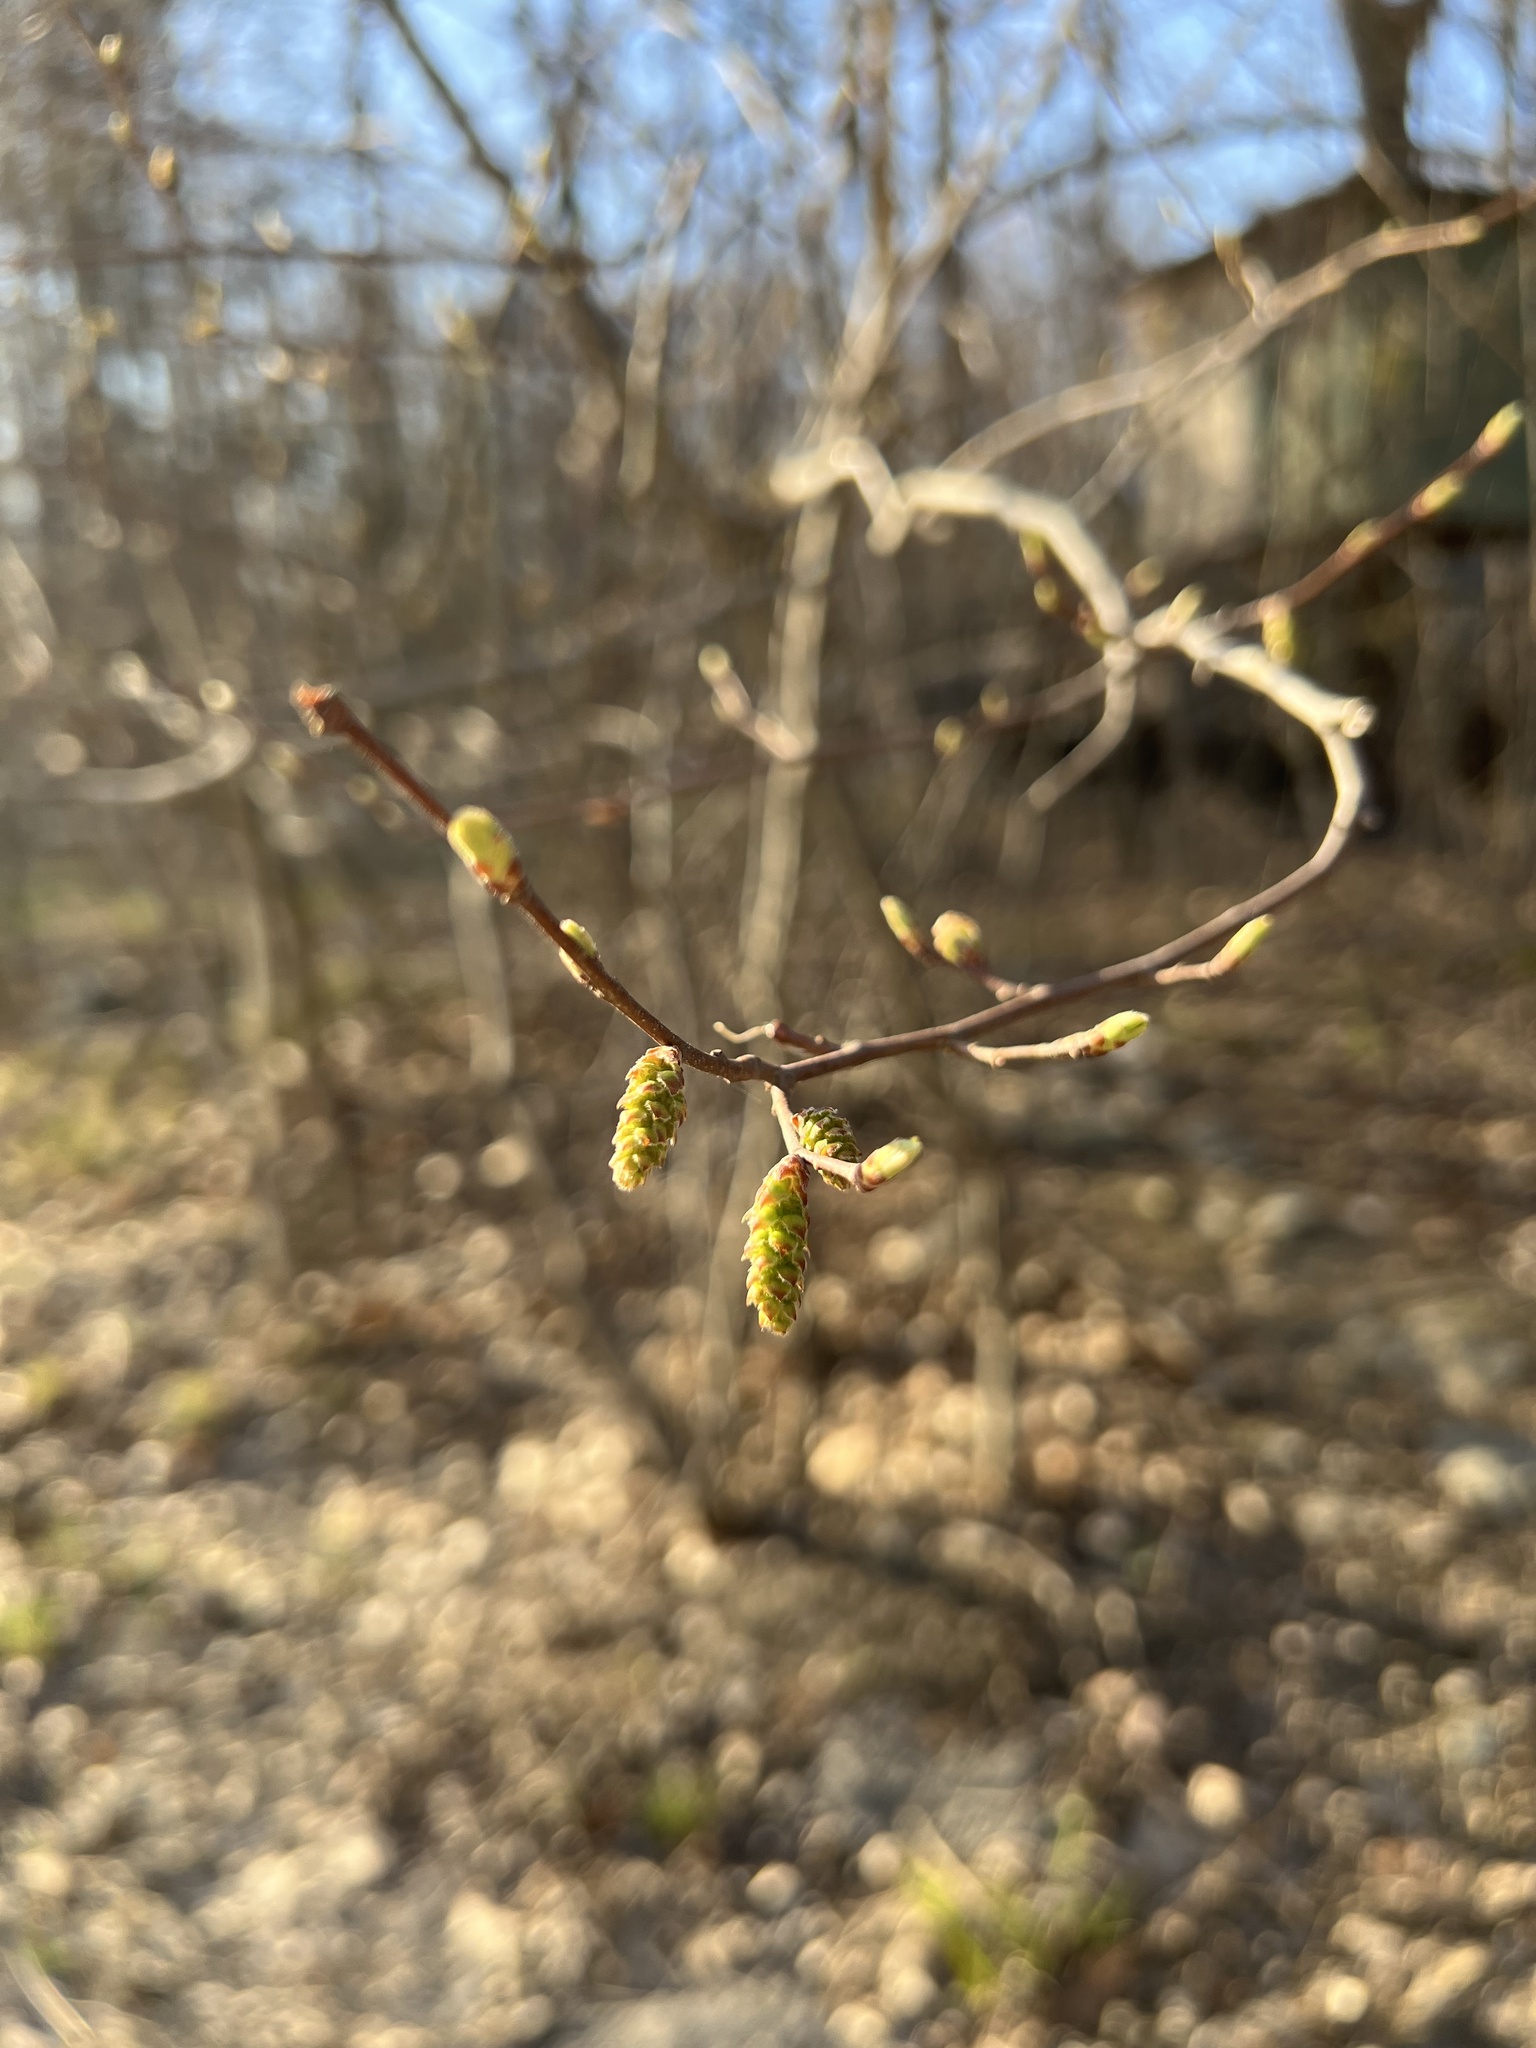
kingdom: Plantae
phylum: Tracheophyta
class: Magnoliopsida
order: Fagales
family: Betulaceae
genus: Carpinus
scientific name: Carpinus caroliniana
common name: American hornbeam
